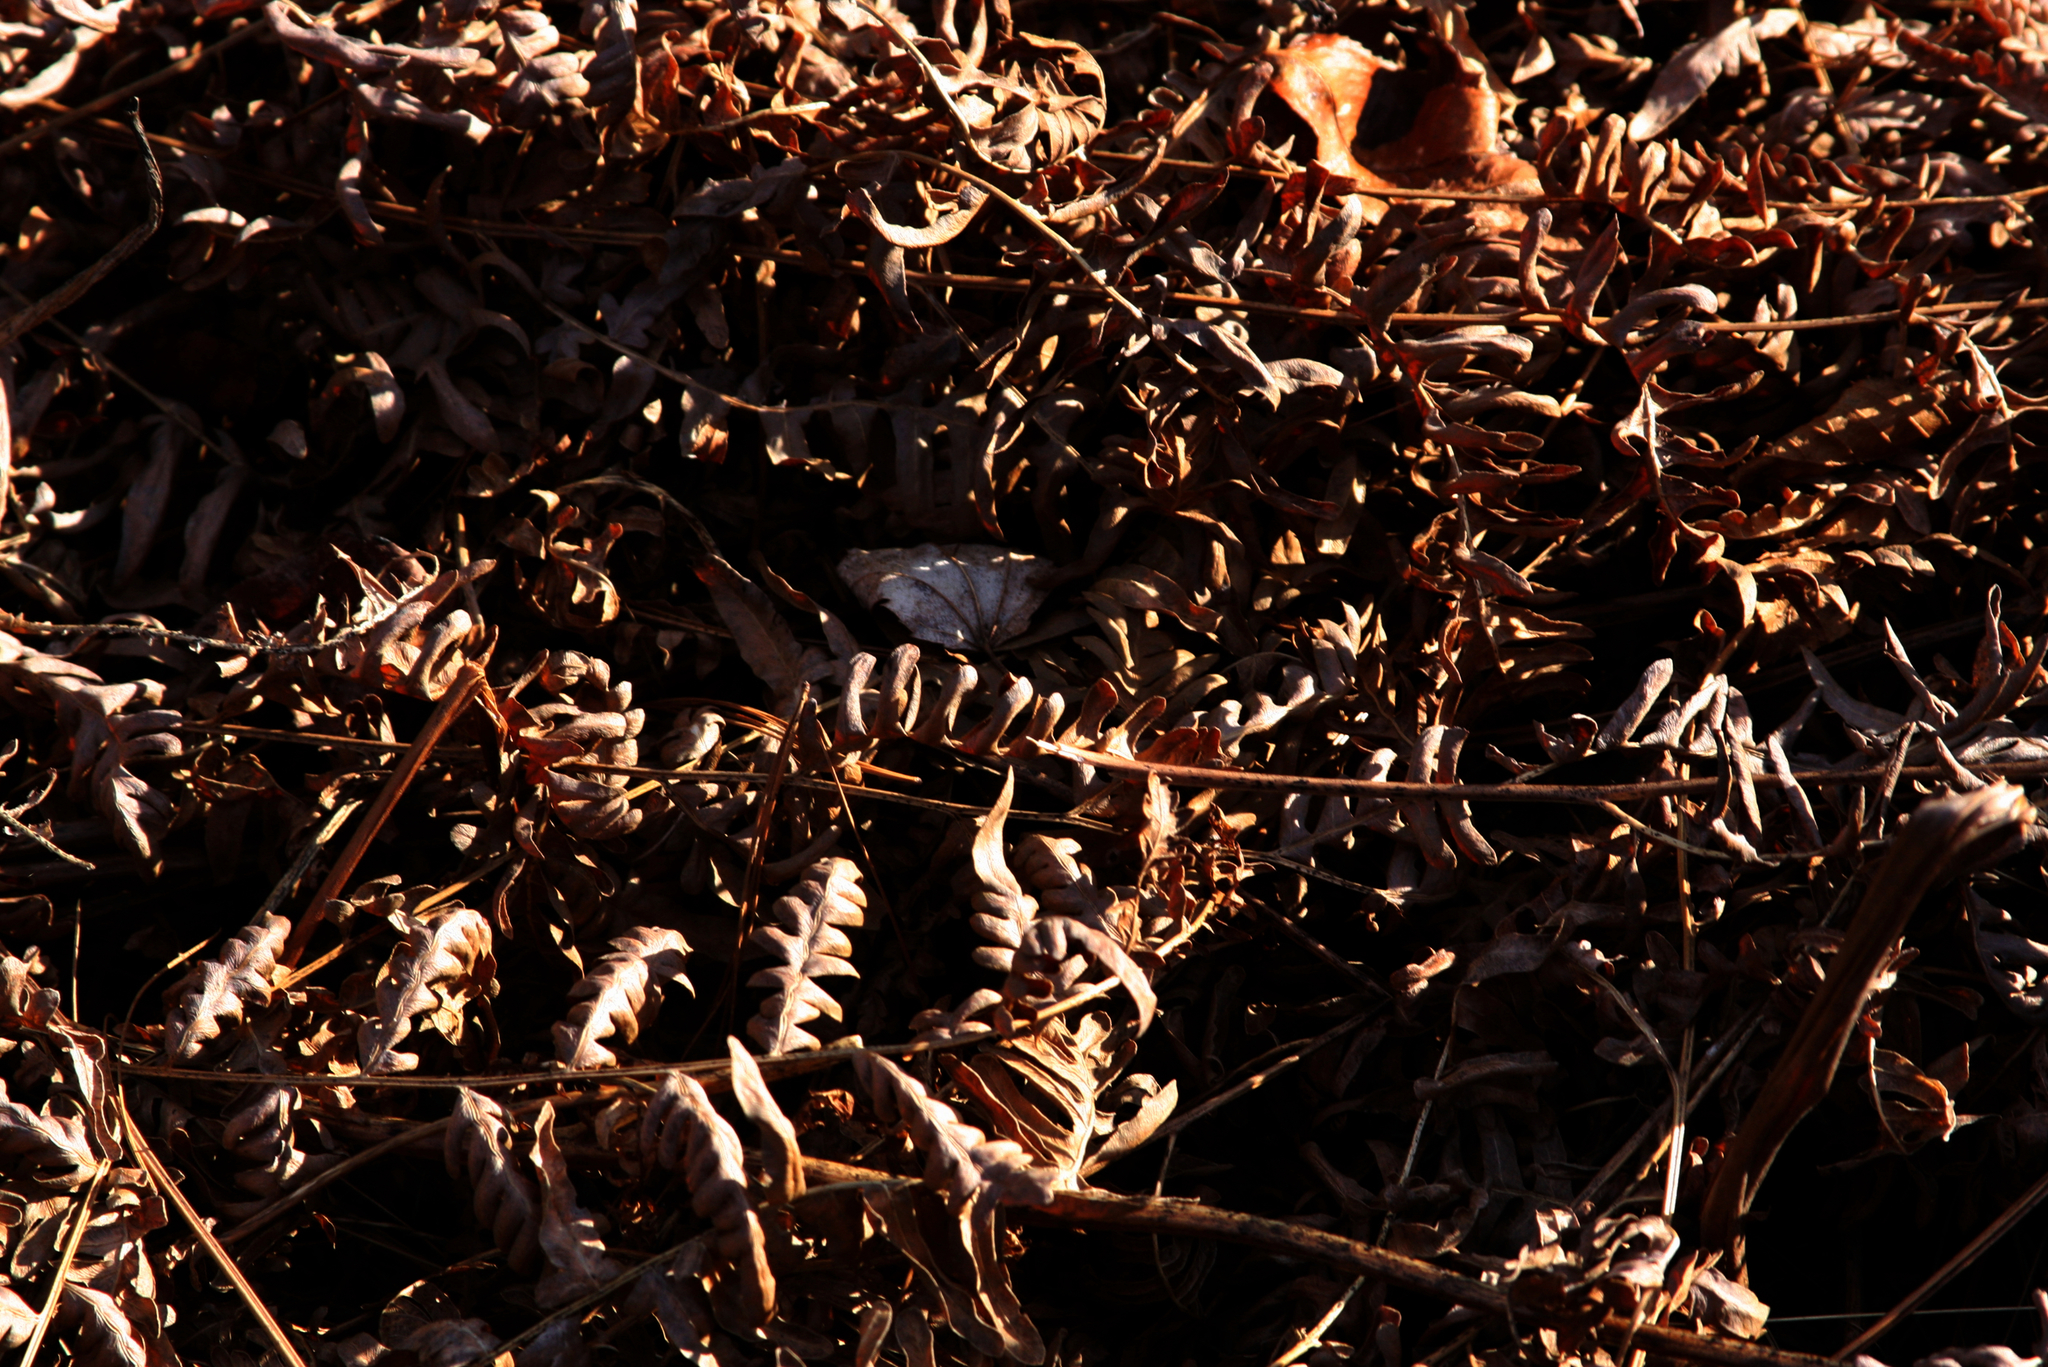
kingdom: Plantae
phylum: Tracheophyta
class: Polypodiopsida
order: Polypodiales
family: Dennstaedtiaceae
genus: Pteridium
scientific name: Pteridium aquilinum
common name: Bracken
